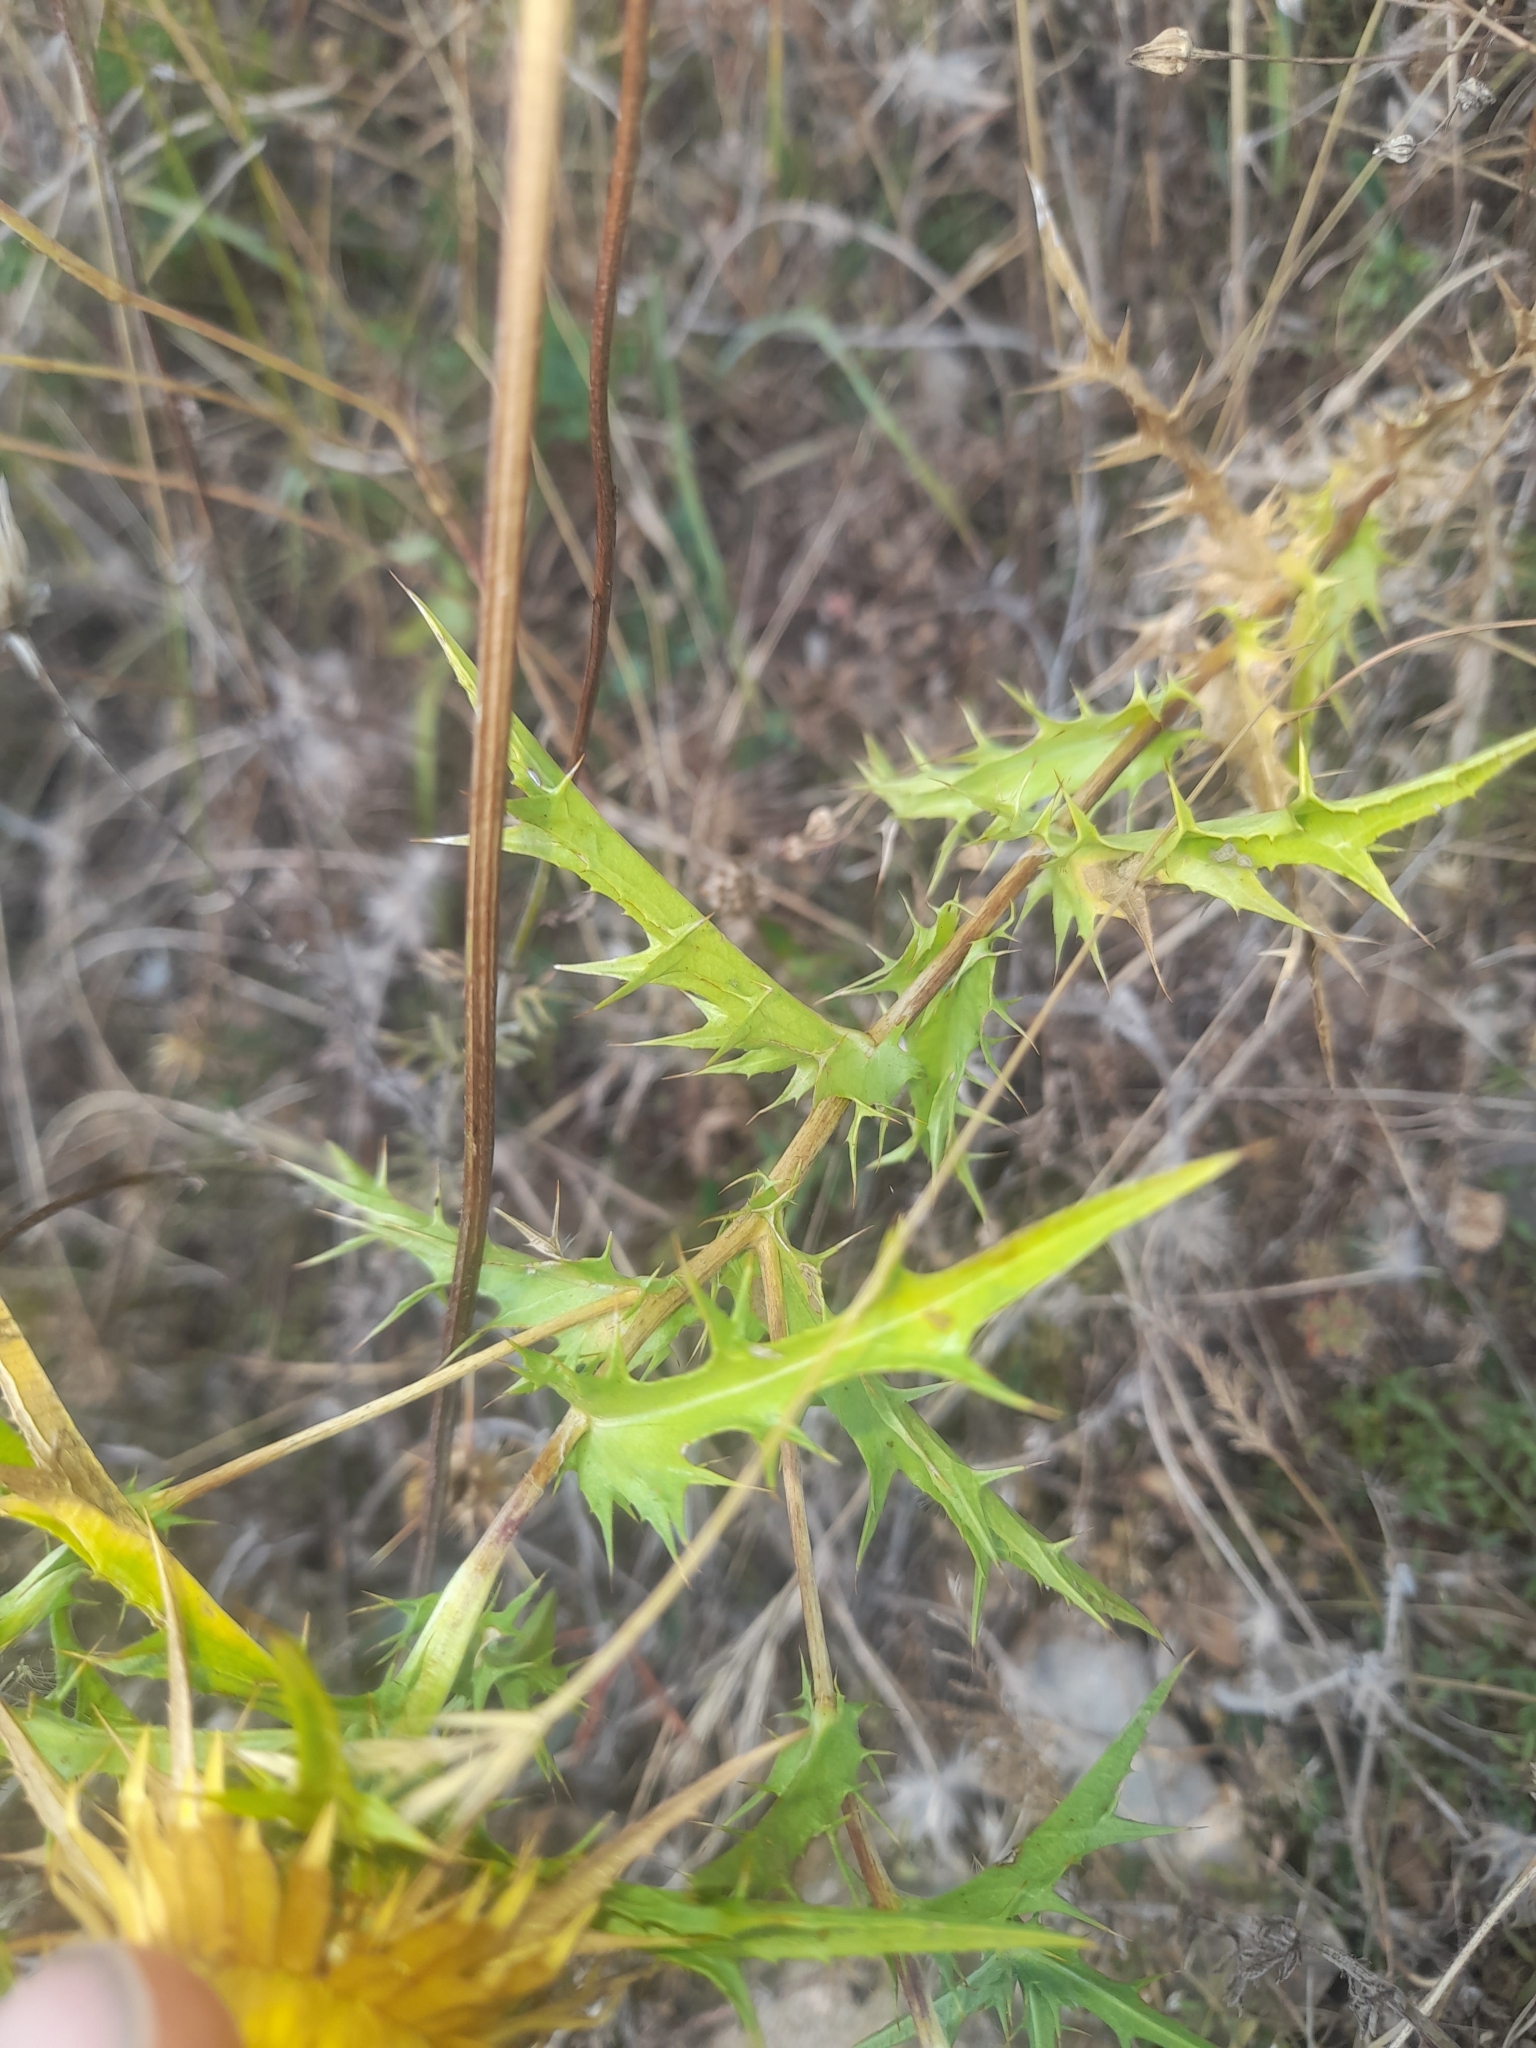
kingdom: Plantae
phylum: Tracheophyta
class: Magnoliopsida
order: Asterales
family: Asteraceae
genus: Carlina
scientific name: Carlina corymbosa
